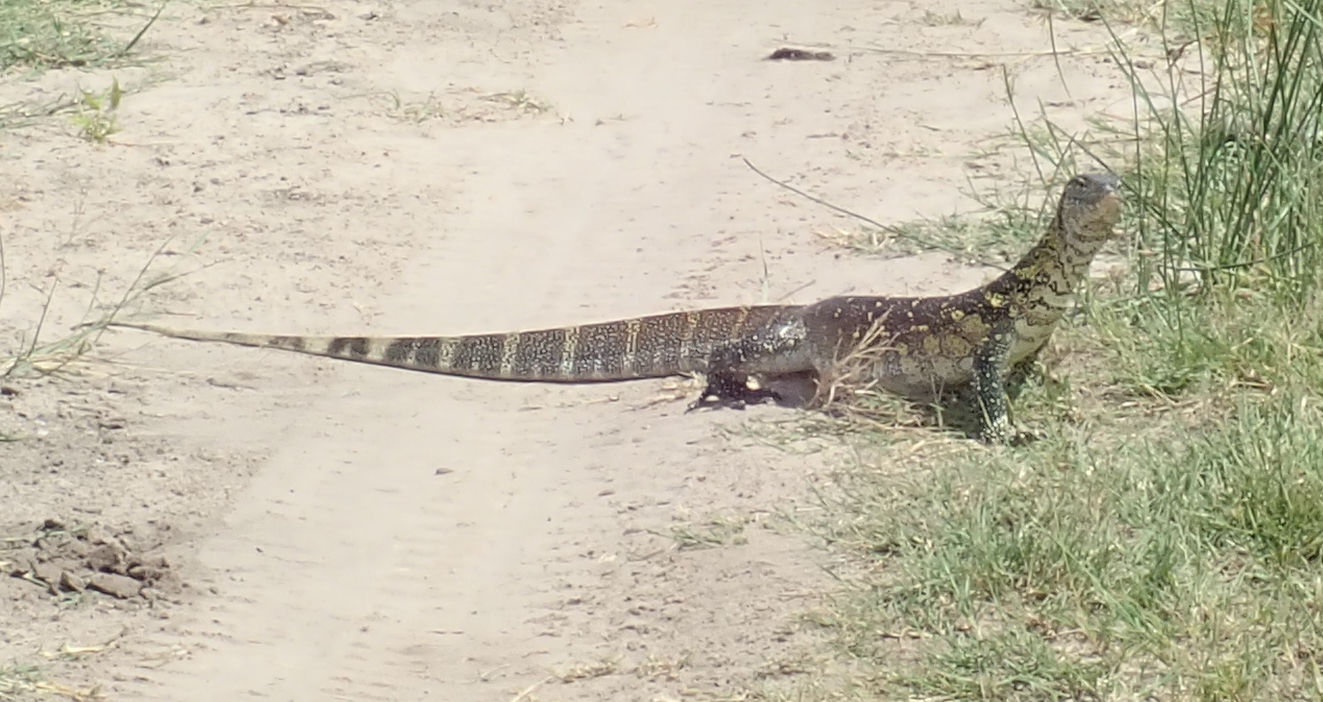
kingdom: Animalia
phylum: Chordata
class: Squamata
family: Varanidae
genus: Varanus
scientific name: Varanus niloticus
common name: Nile monitor
